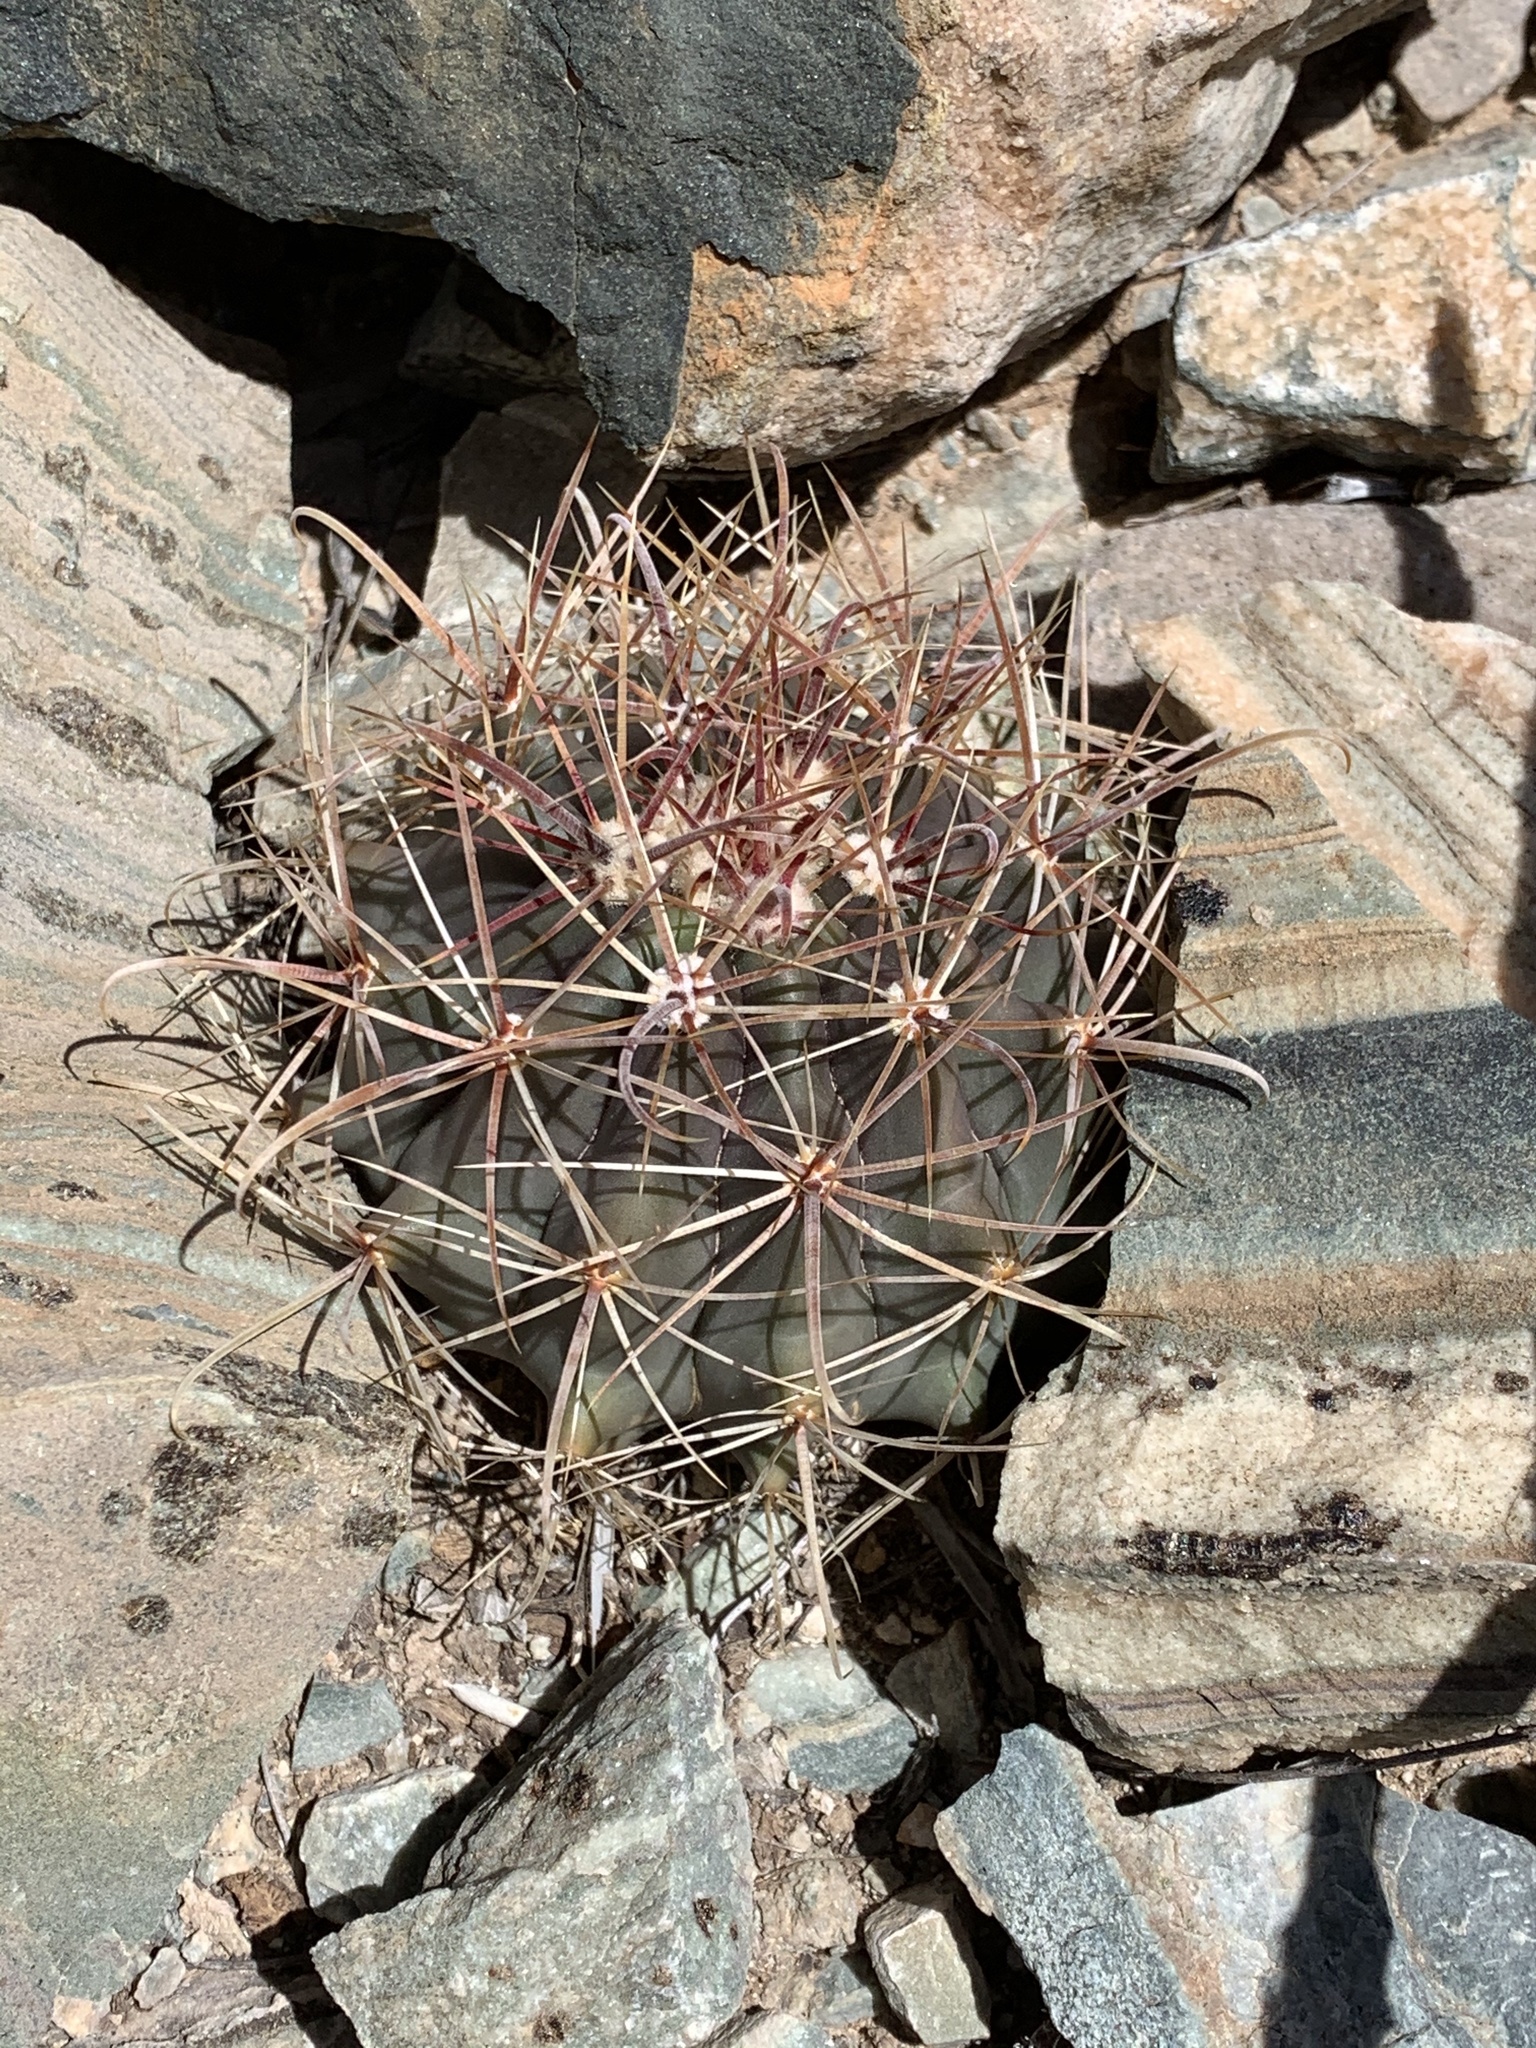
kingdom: Plantae
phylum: Tracheophyta
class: Magnoliopsida
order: Caryophyllales
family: Cactaceae
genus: Ferocactus
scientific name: Ferocactus wislizeni
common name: Candy barrel cactus
